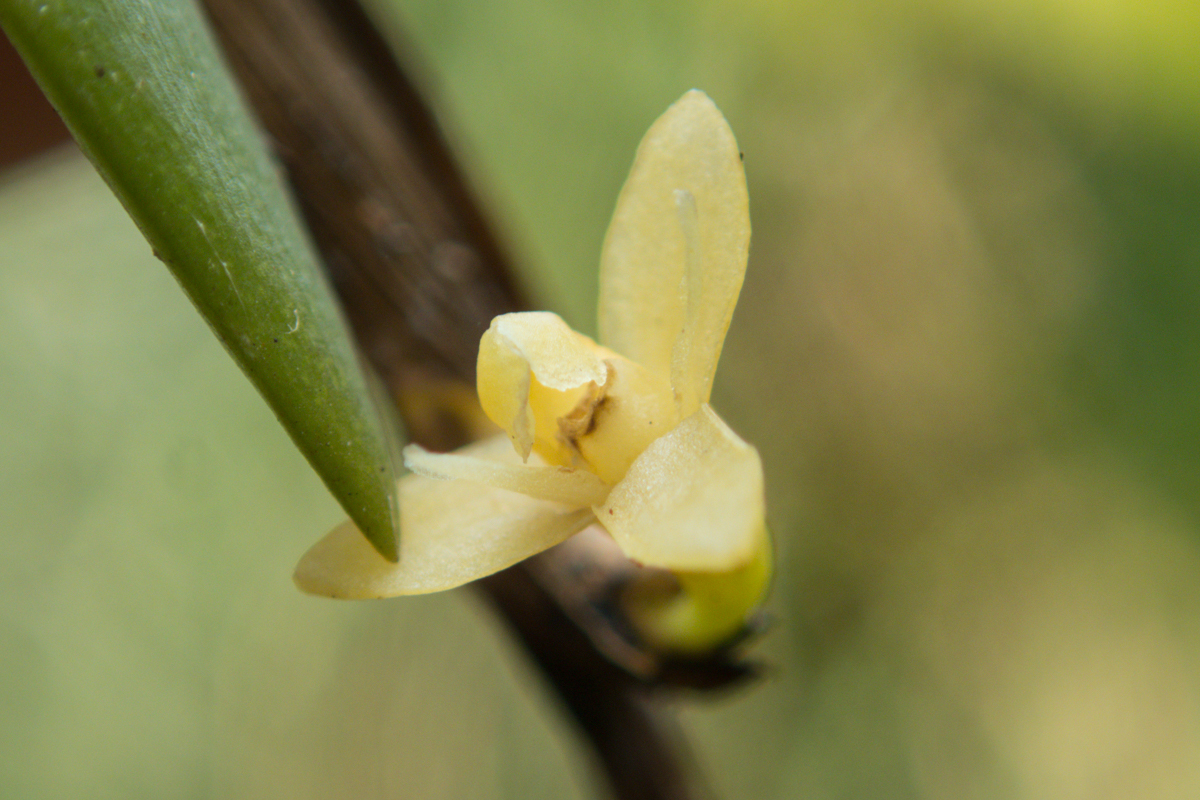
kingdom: Plantae
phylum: Tracheophyta
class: Liliopsida
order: Asparagales
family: Orchidaceae
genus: Dendrobium
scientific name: Dendrobium aloifolium
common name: Aloe-like dendrobium
